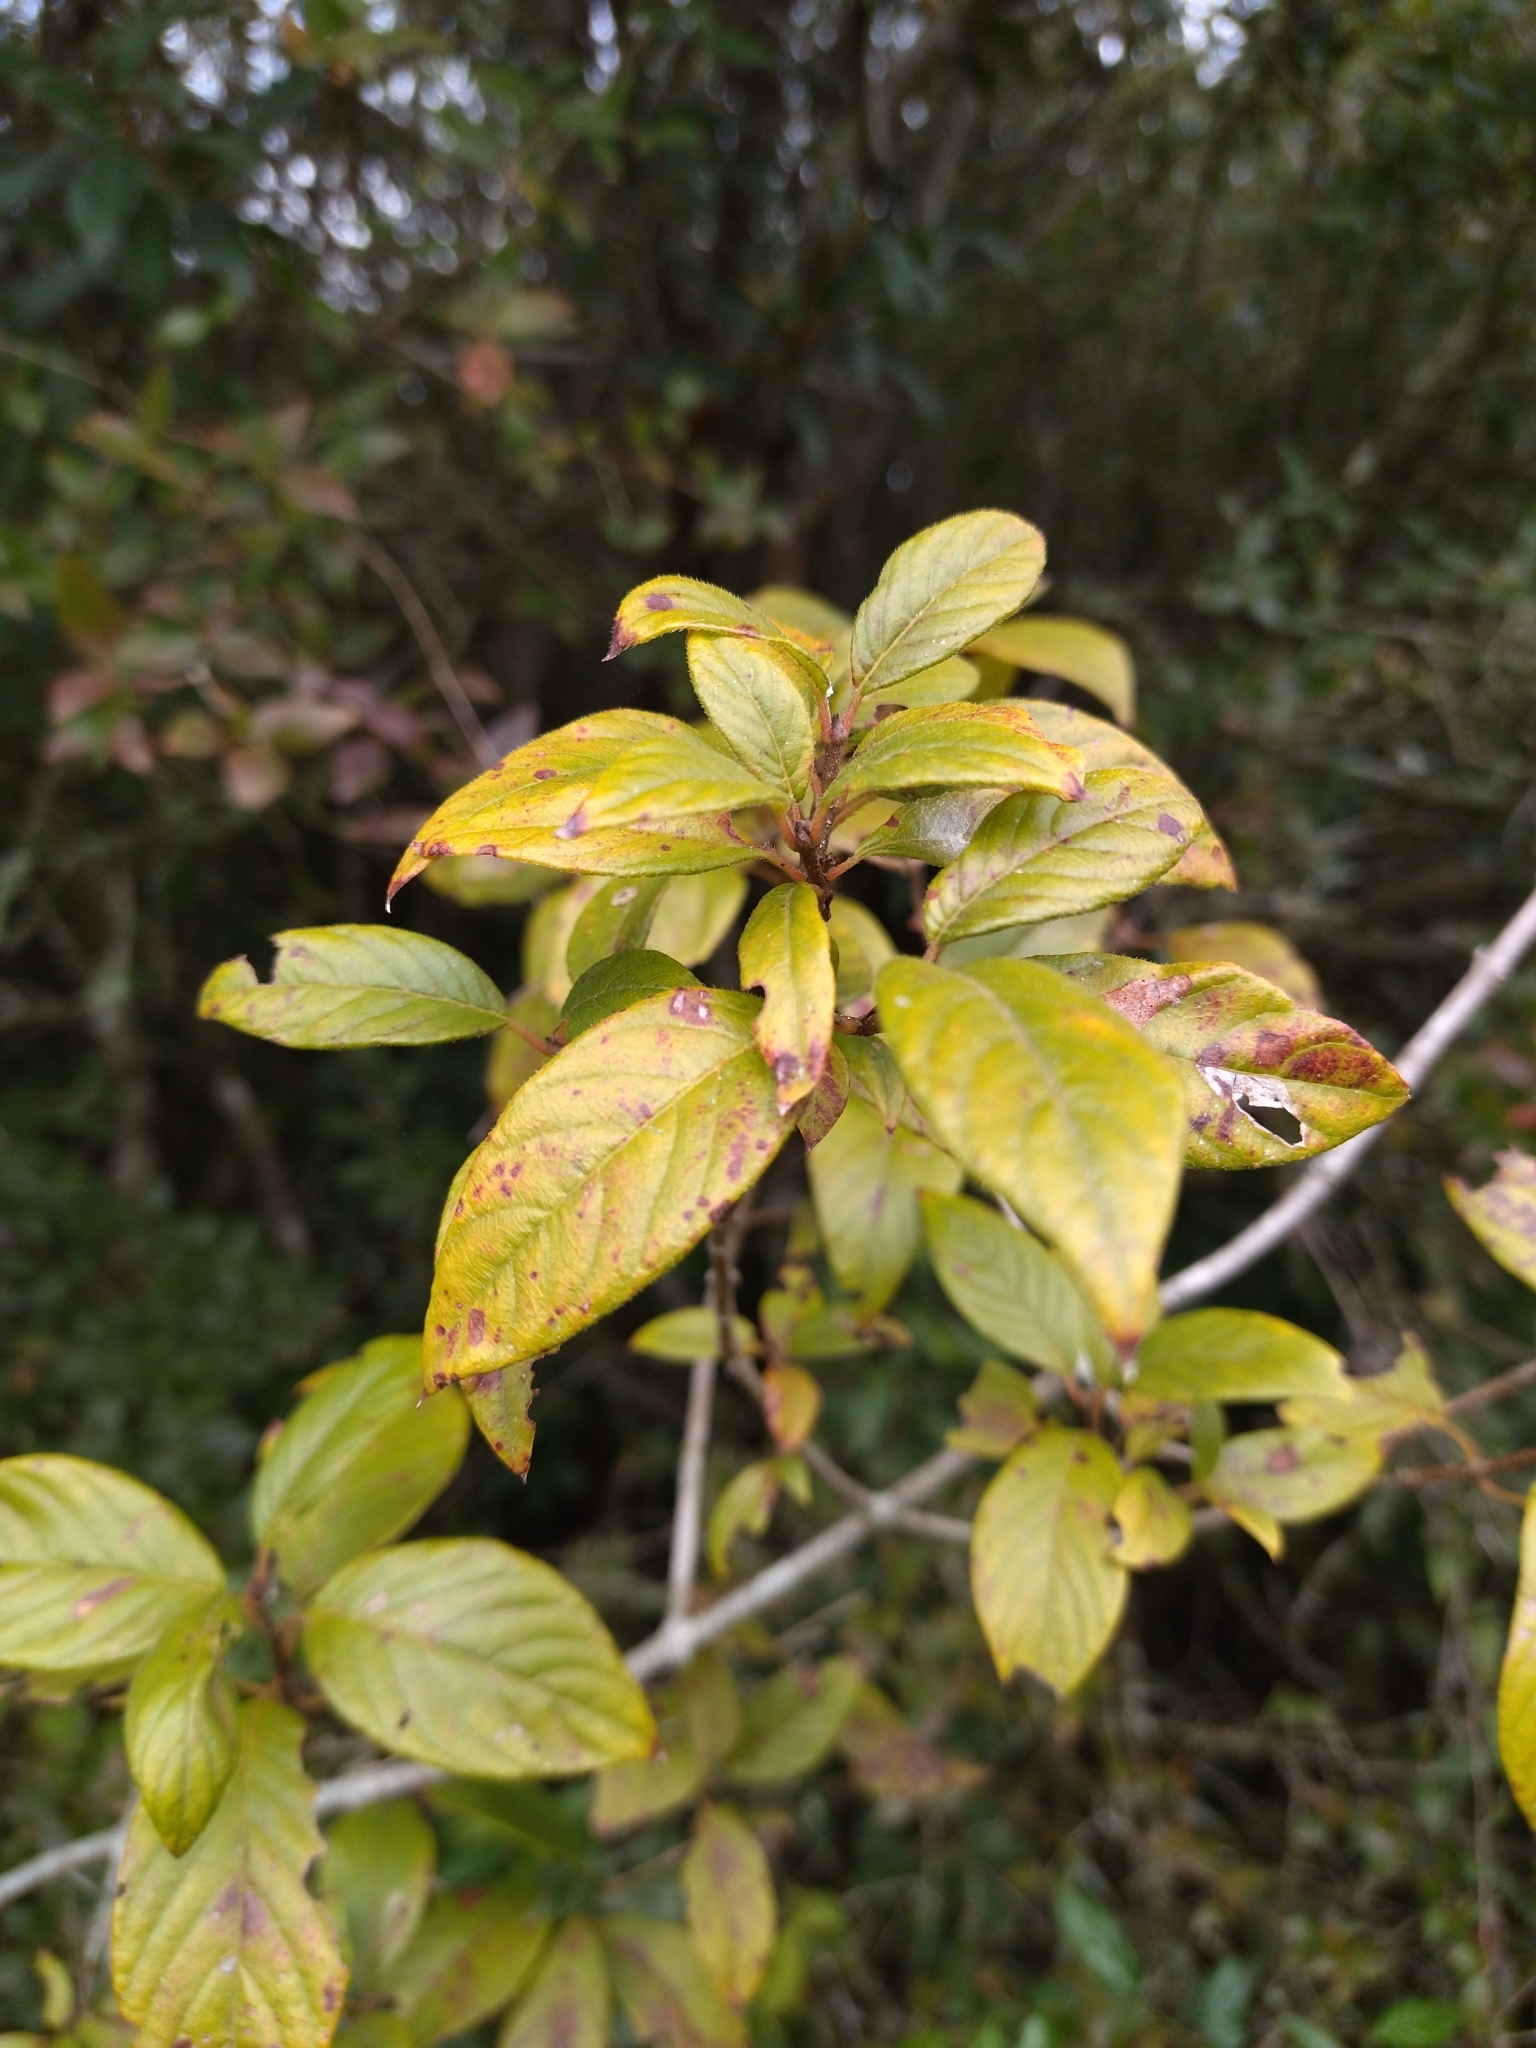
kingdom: Plantae
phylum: Tracheophyta
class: Magnoliopsida
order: Gentianales
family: Rubiaceae
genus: Guettarda
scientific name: Guettarda uruguensis
